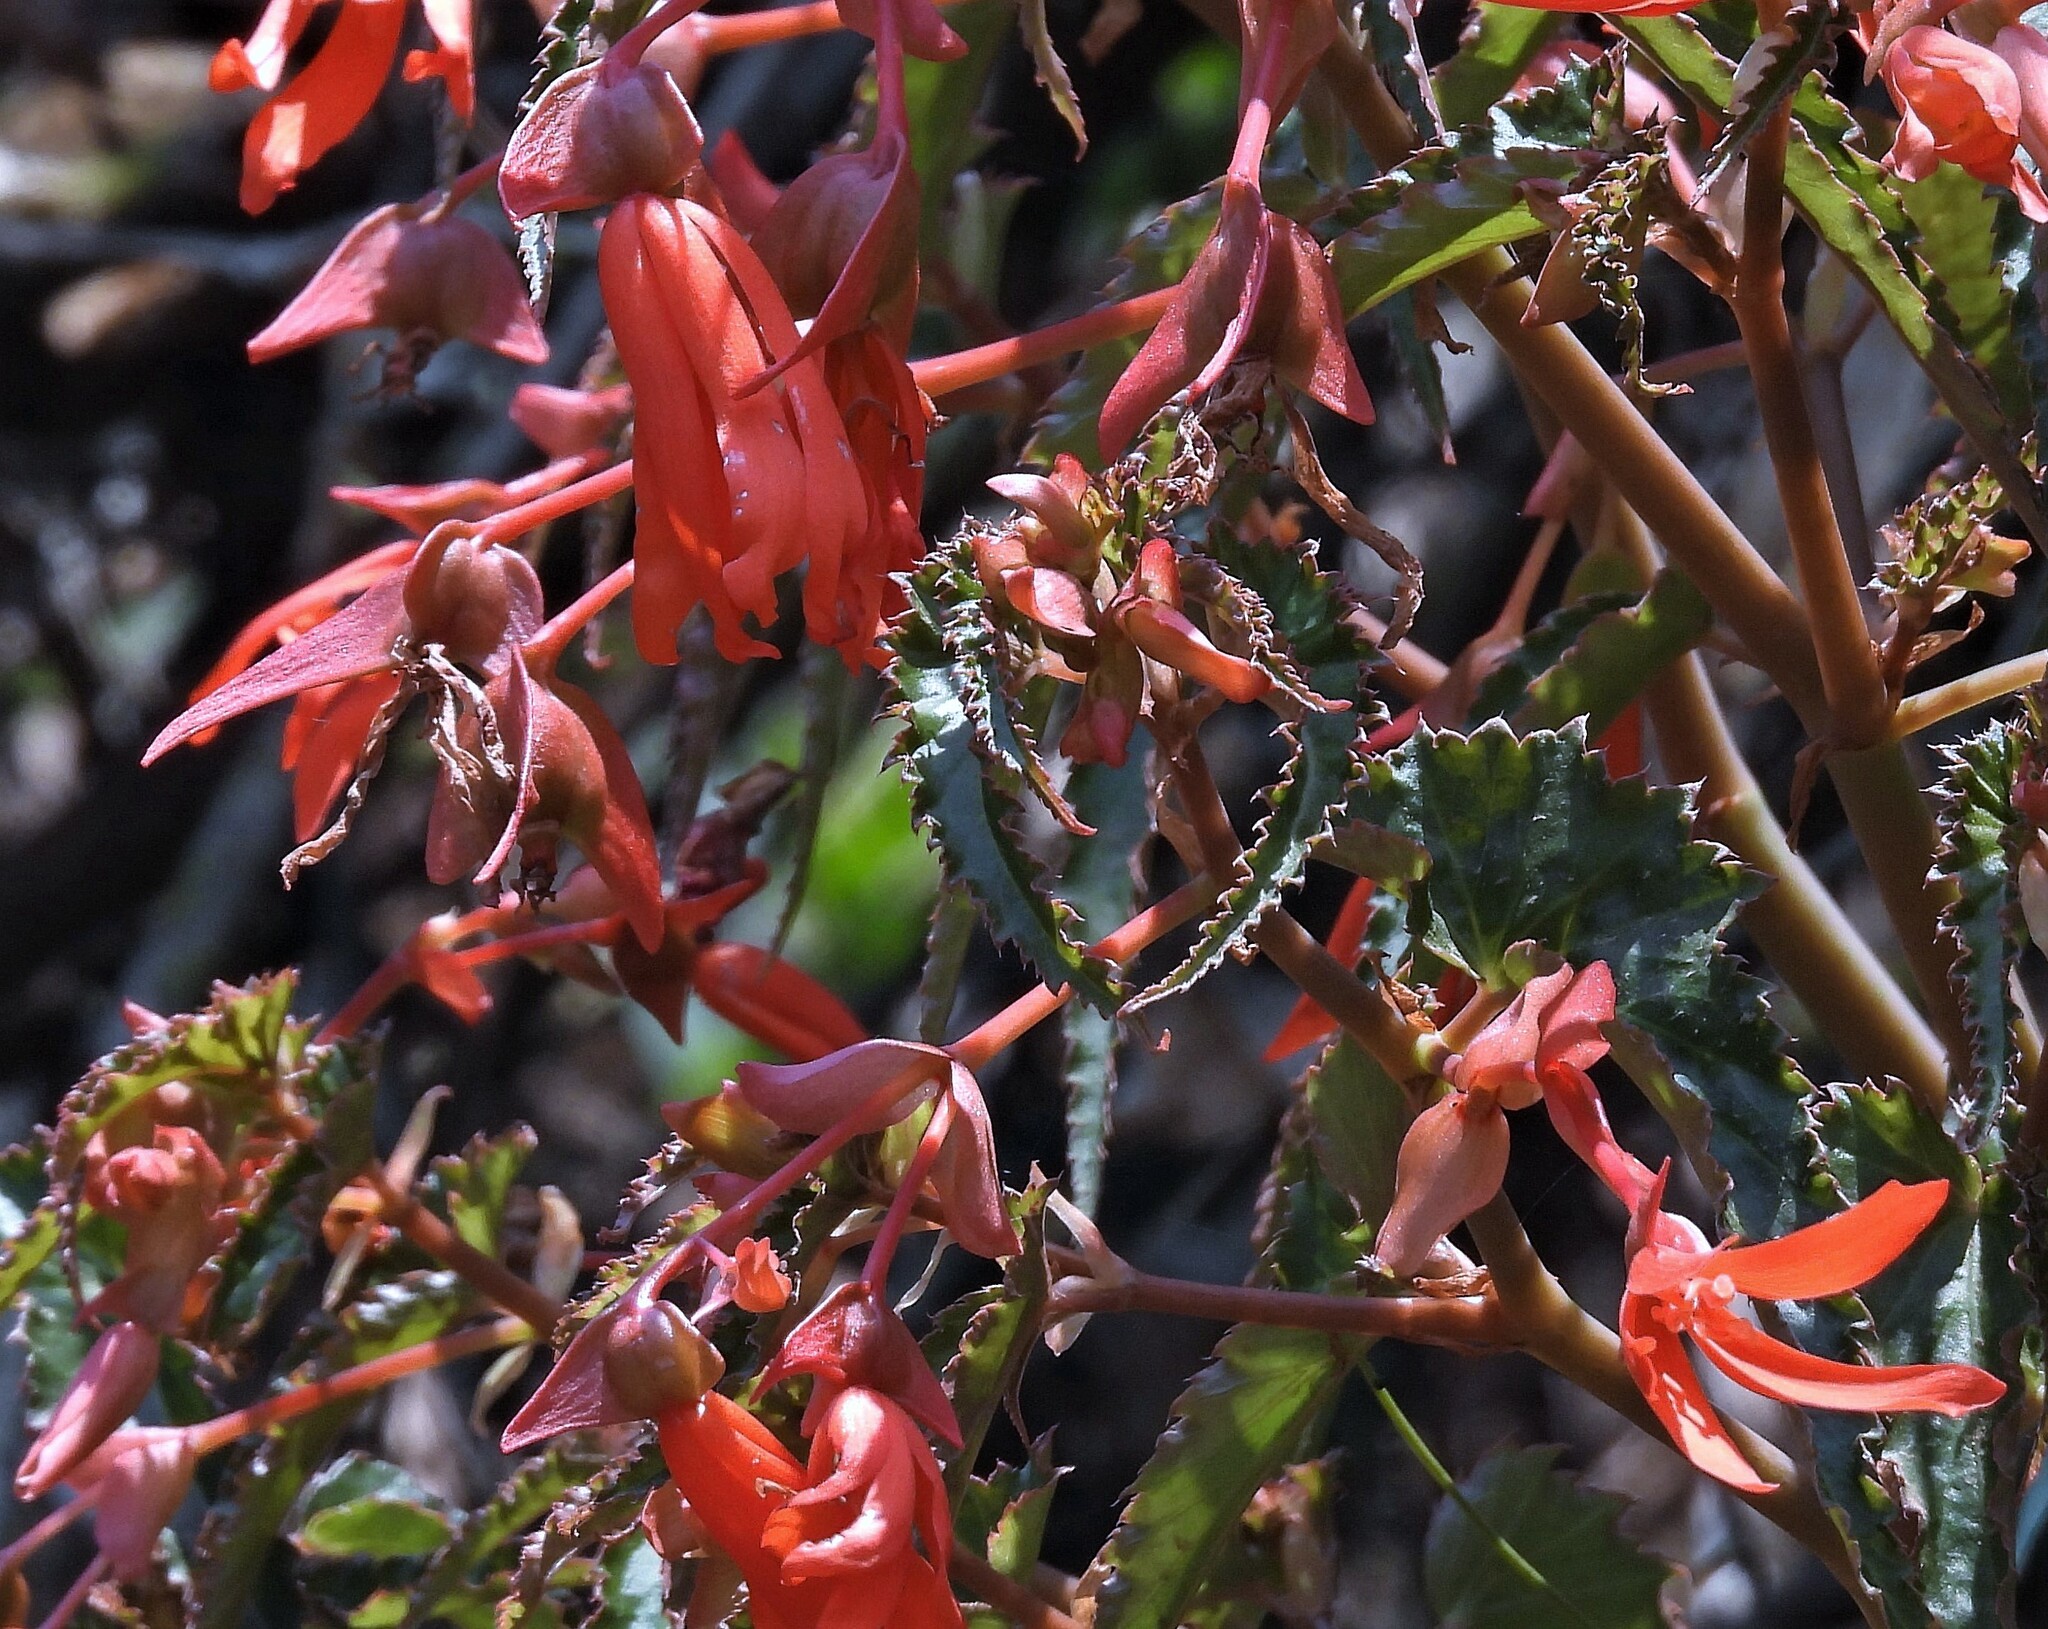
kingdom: Plantae
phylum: Tracheophyta
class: Magnoliopsida
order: Cucurbitales
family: Begoniaceae
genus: Begonia
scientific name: Begonia boliviensis
